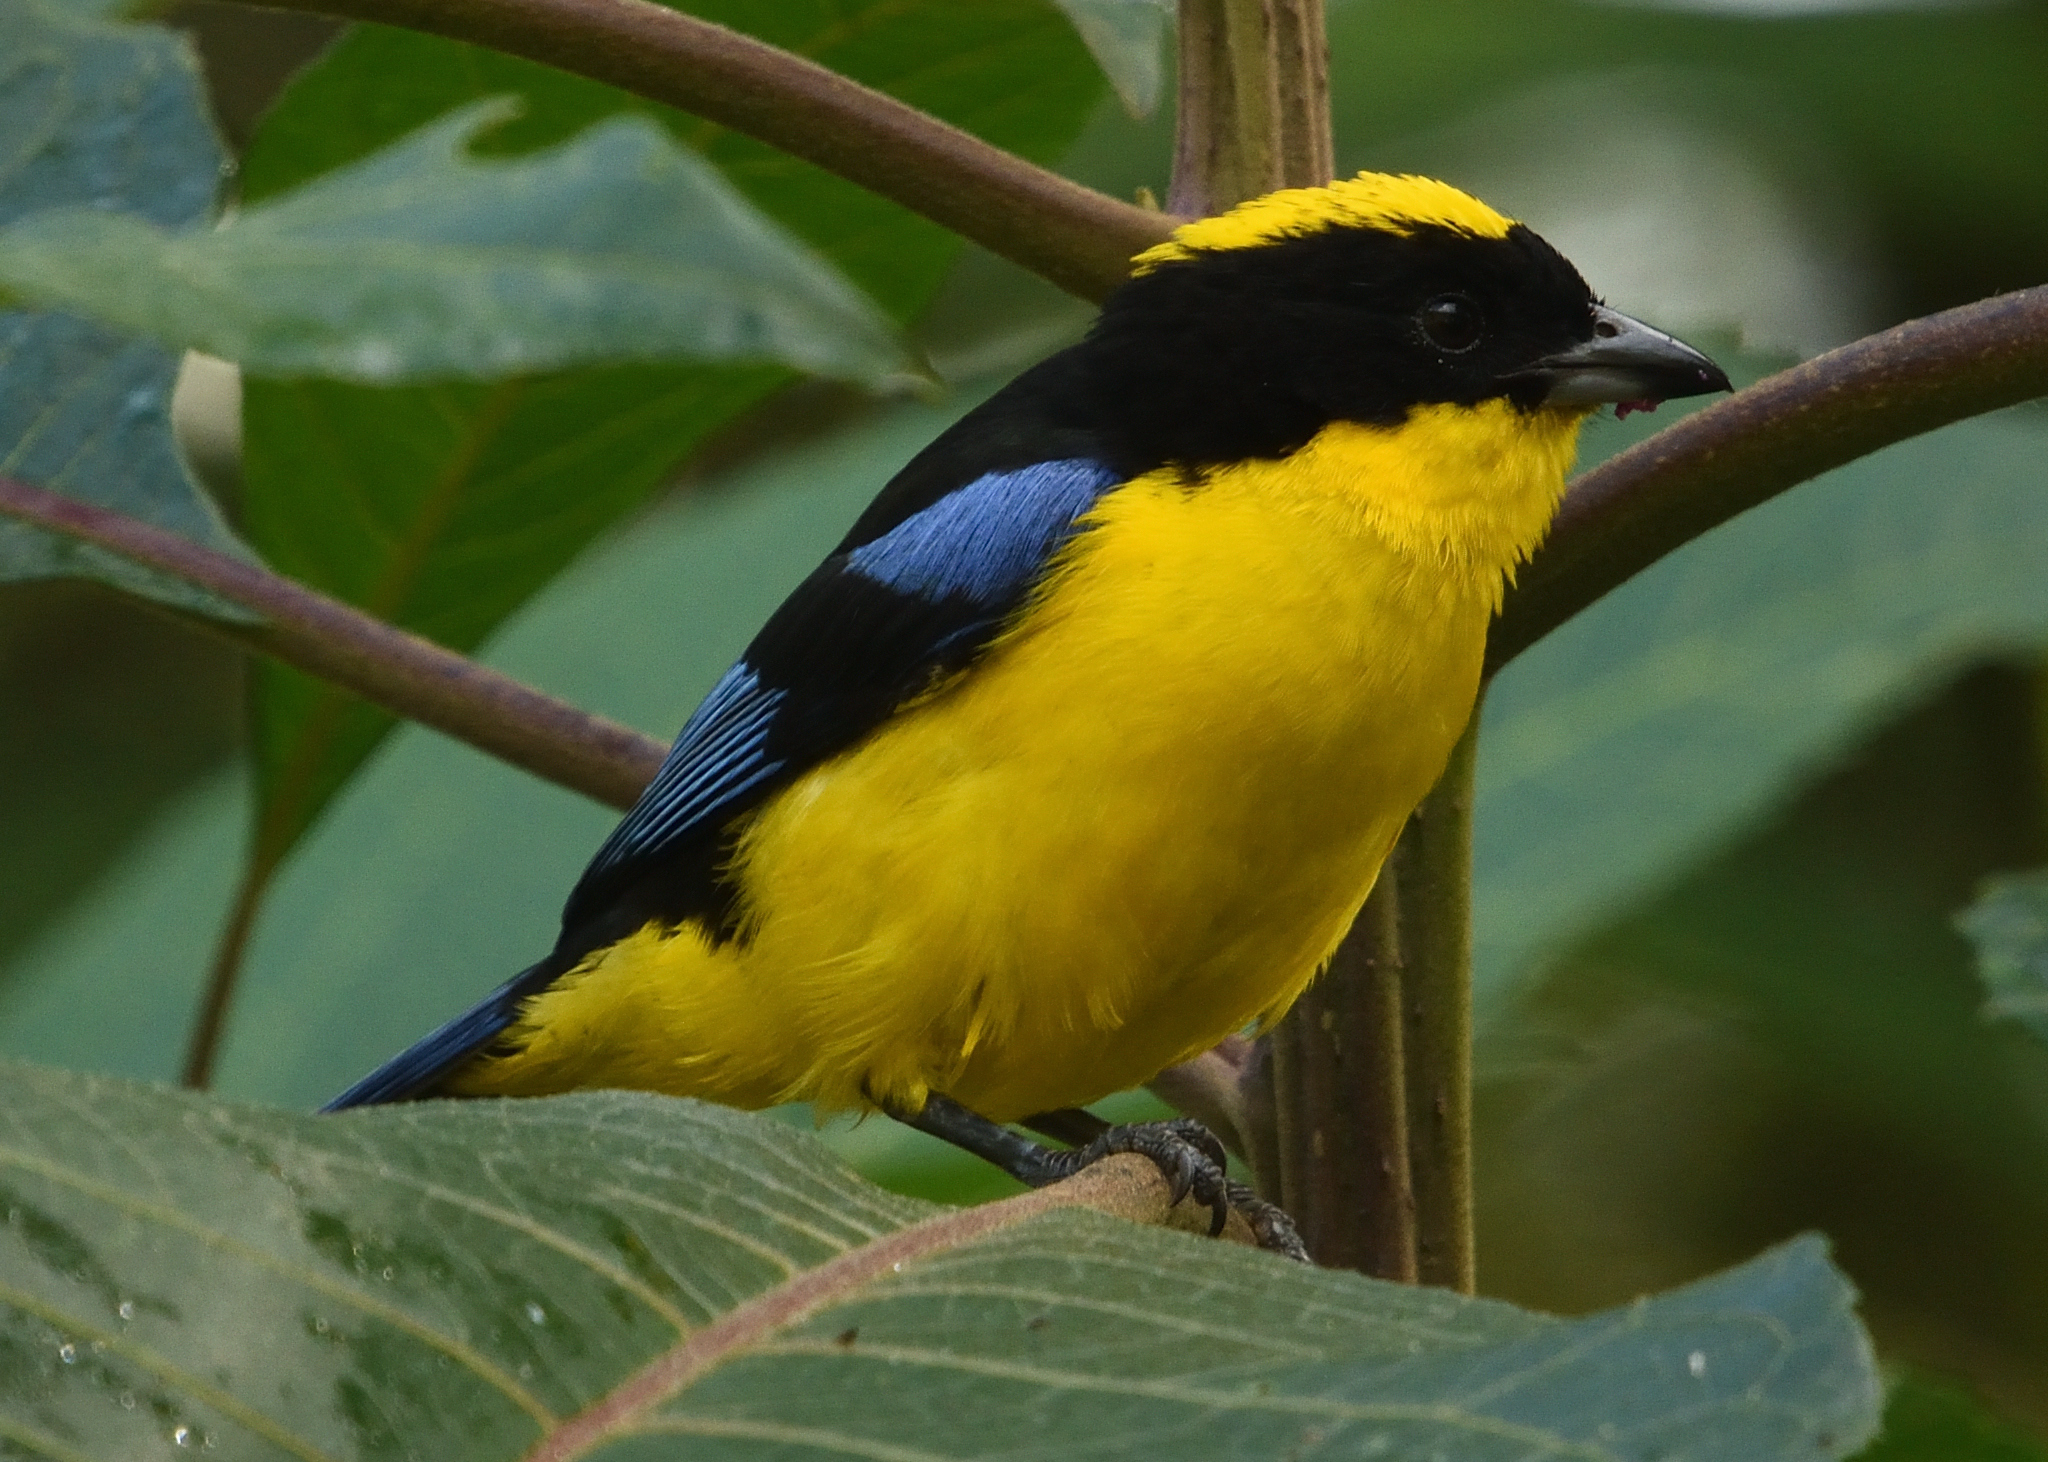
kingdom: Animalia
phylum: Chordata
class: Aves
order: Passeriformes
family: Thraupidae
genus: Anisognathus
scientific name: Anisognathus somptuosus
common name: Blue-winged mountain-tanager
